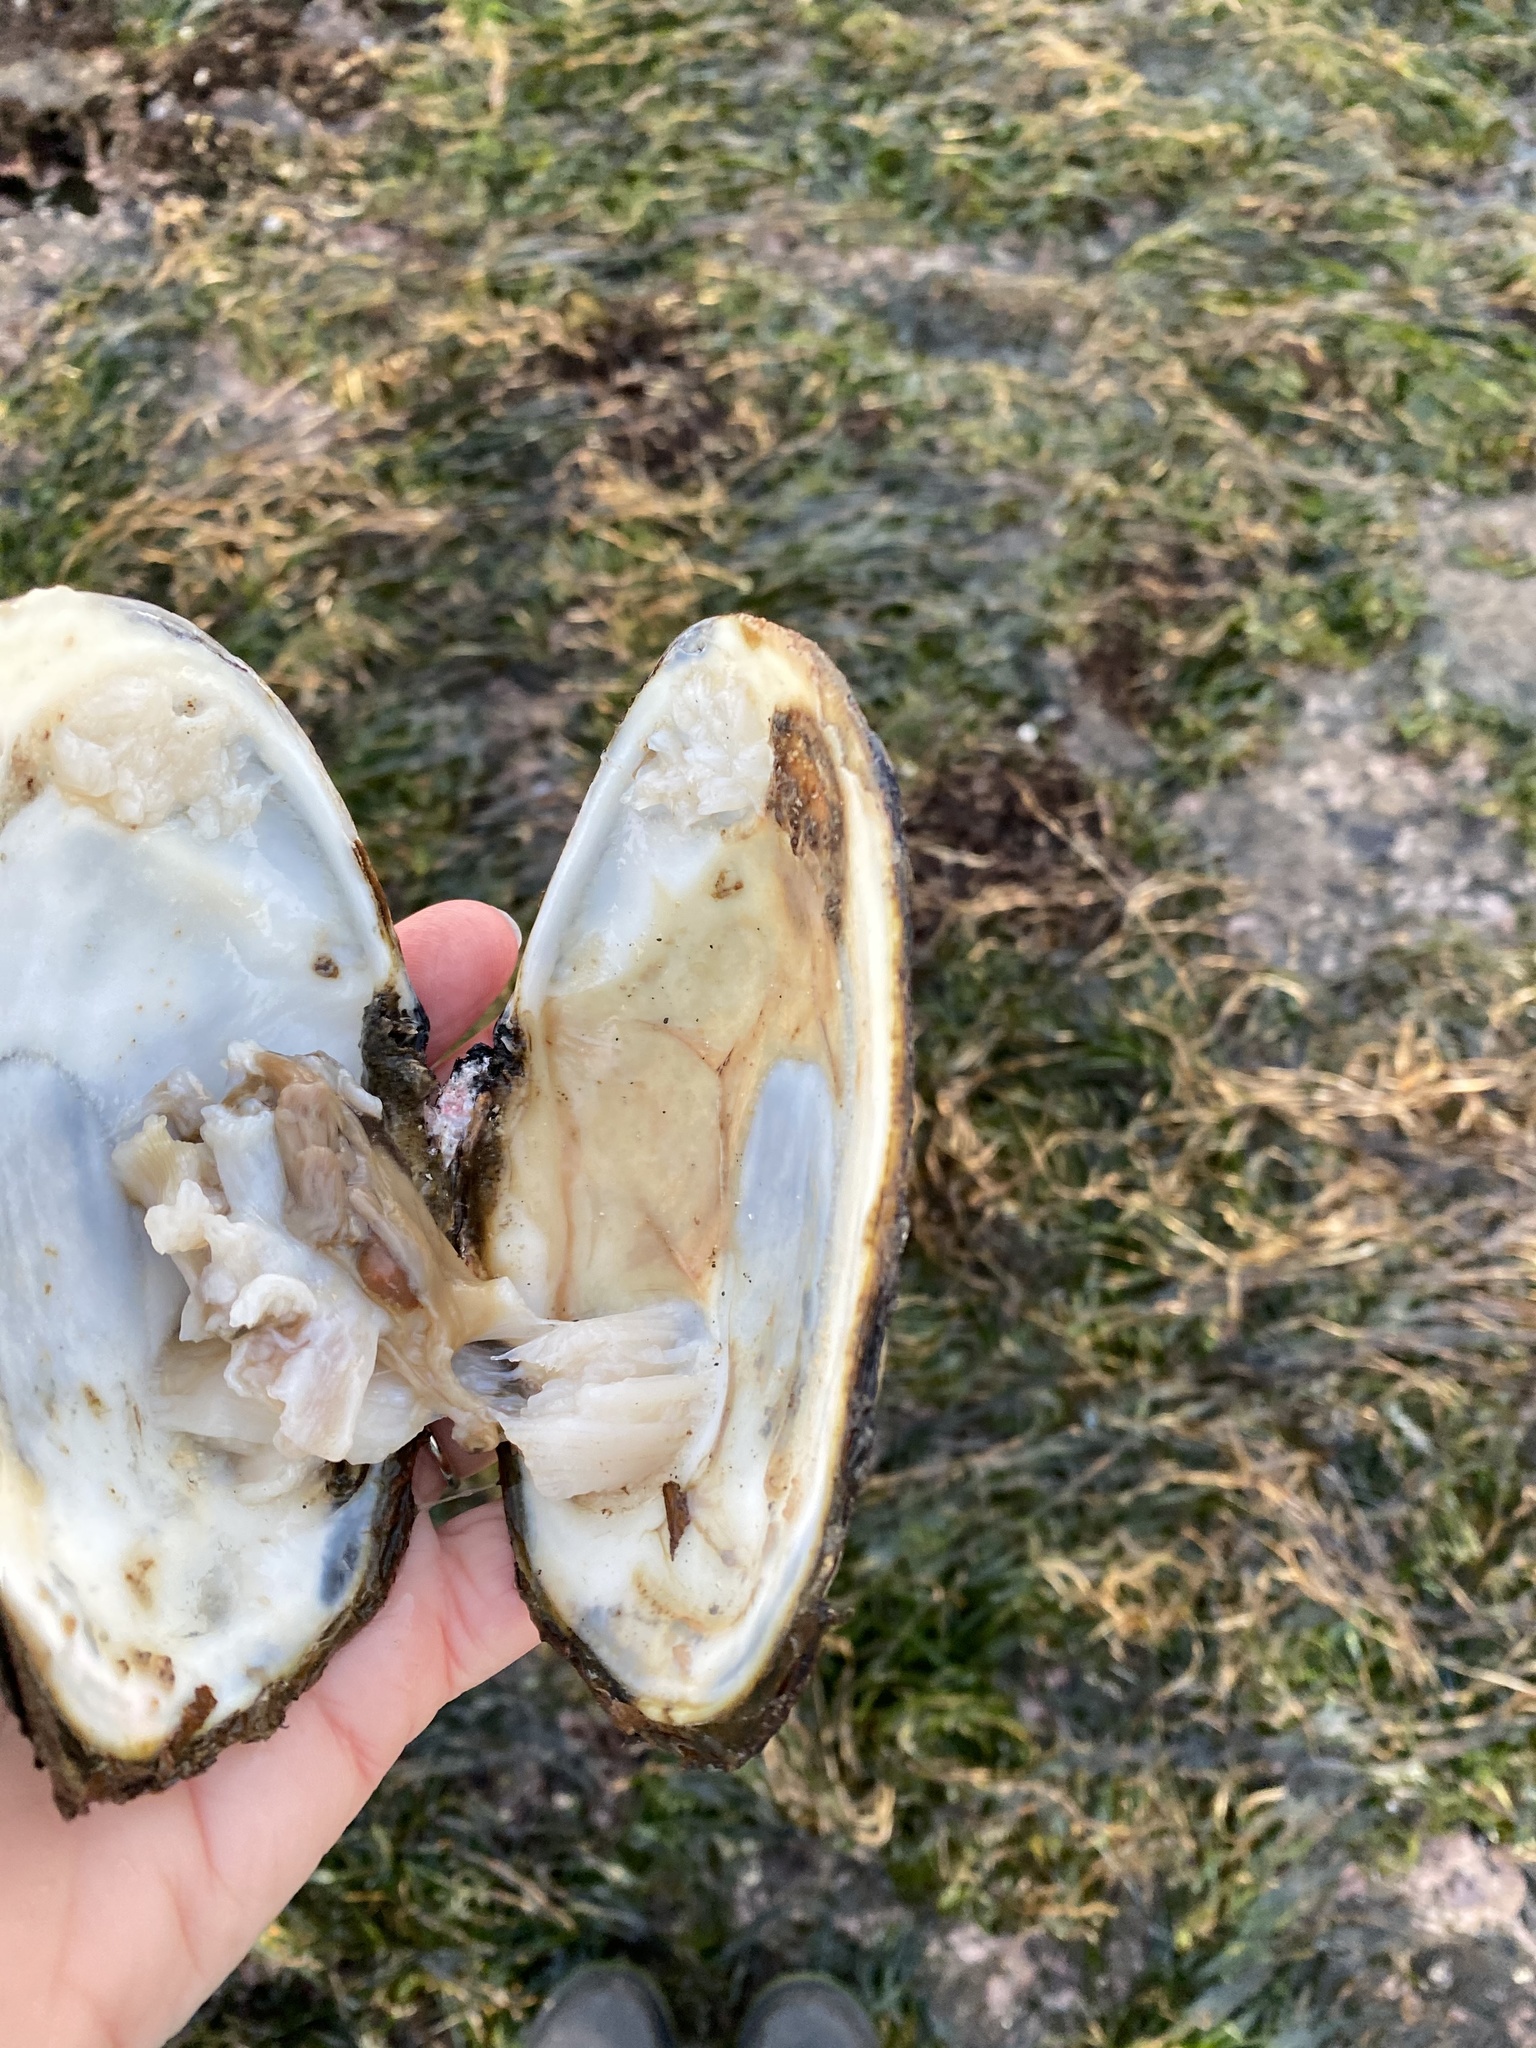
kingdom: Animalia
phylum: Mollusca
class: Bivalvia
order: Venerida
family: Mactridae
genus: Tresus
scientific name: Tresus nuttallii
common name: Pacific gaper clam
